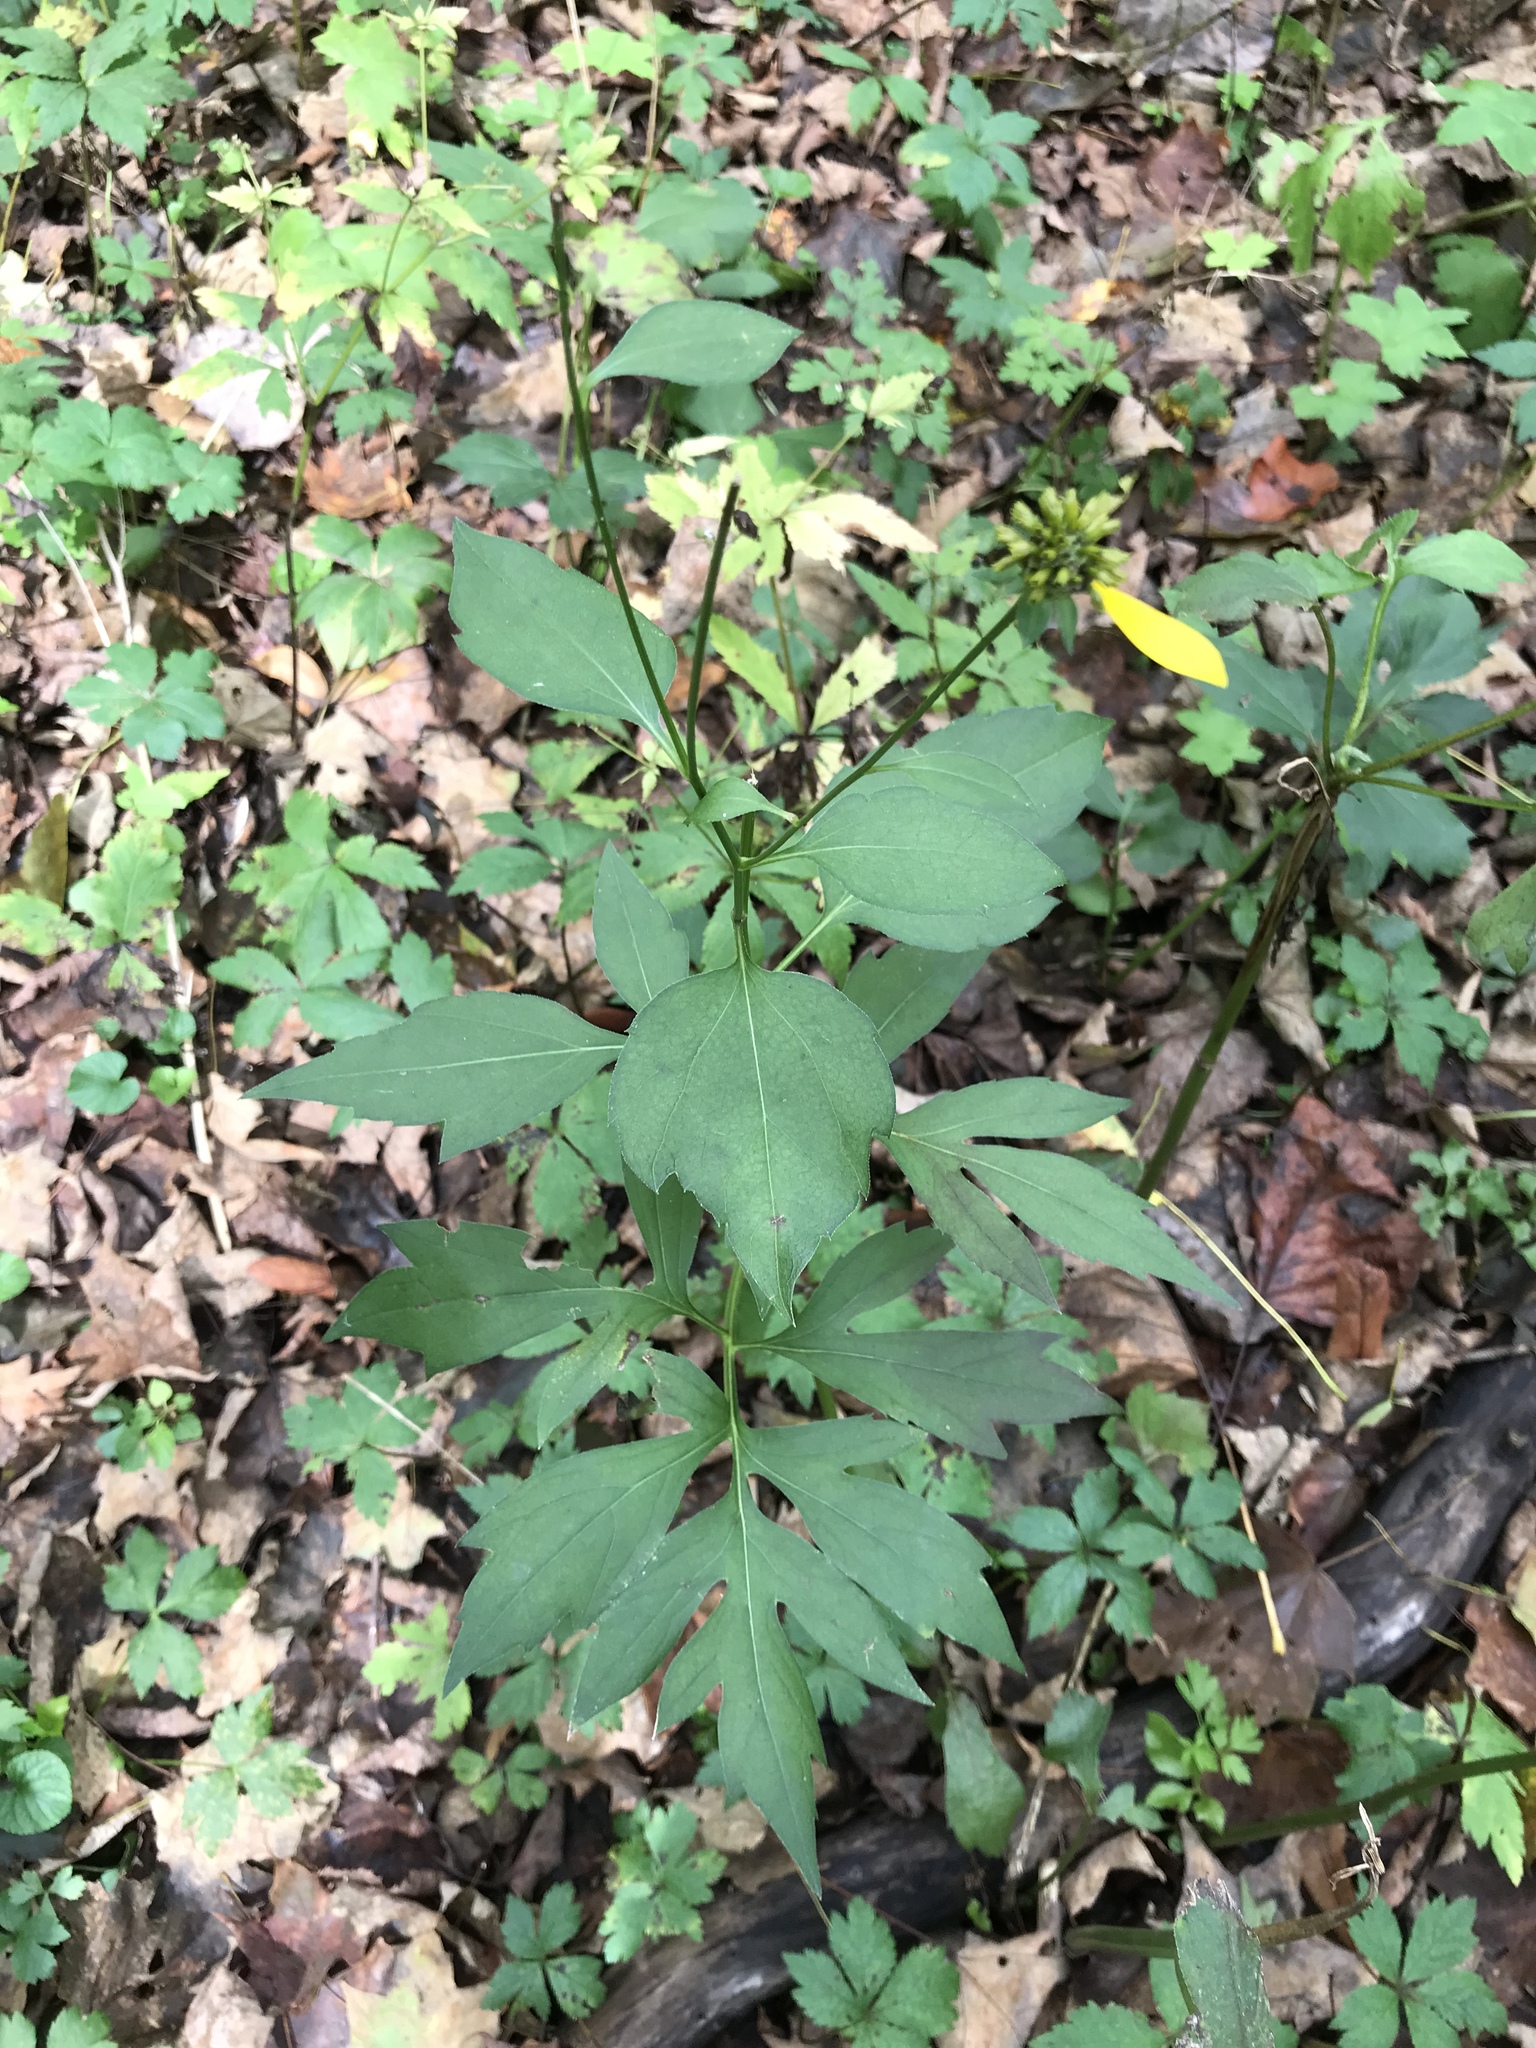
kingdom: Plantae
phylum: Tracheophyta
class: Magnoliopsida
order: Asterales
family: Asteraceae
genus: Rudbeckia
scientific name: Rudbeckia laciniata
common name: Coneflower
